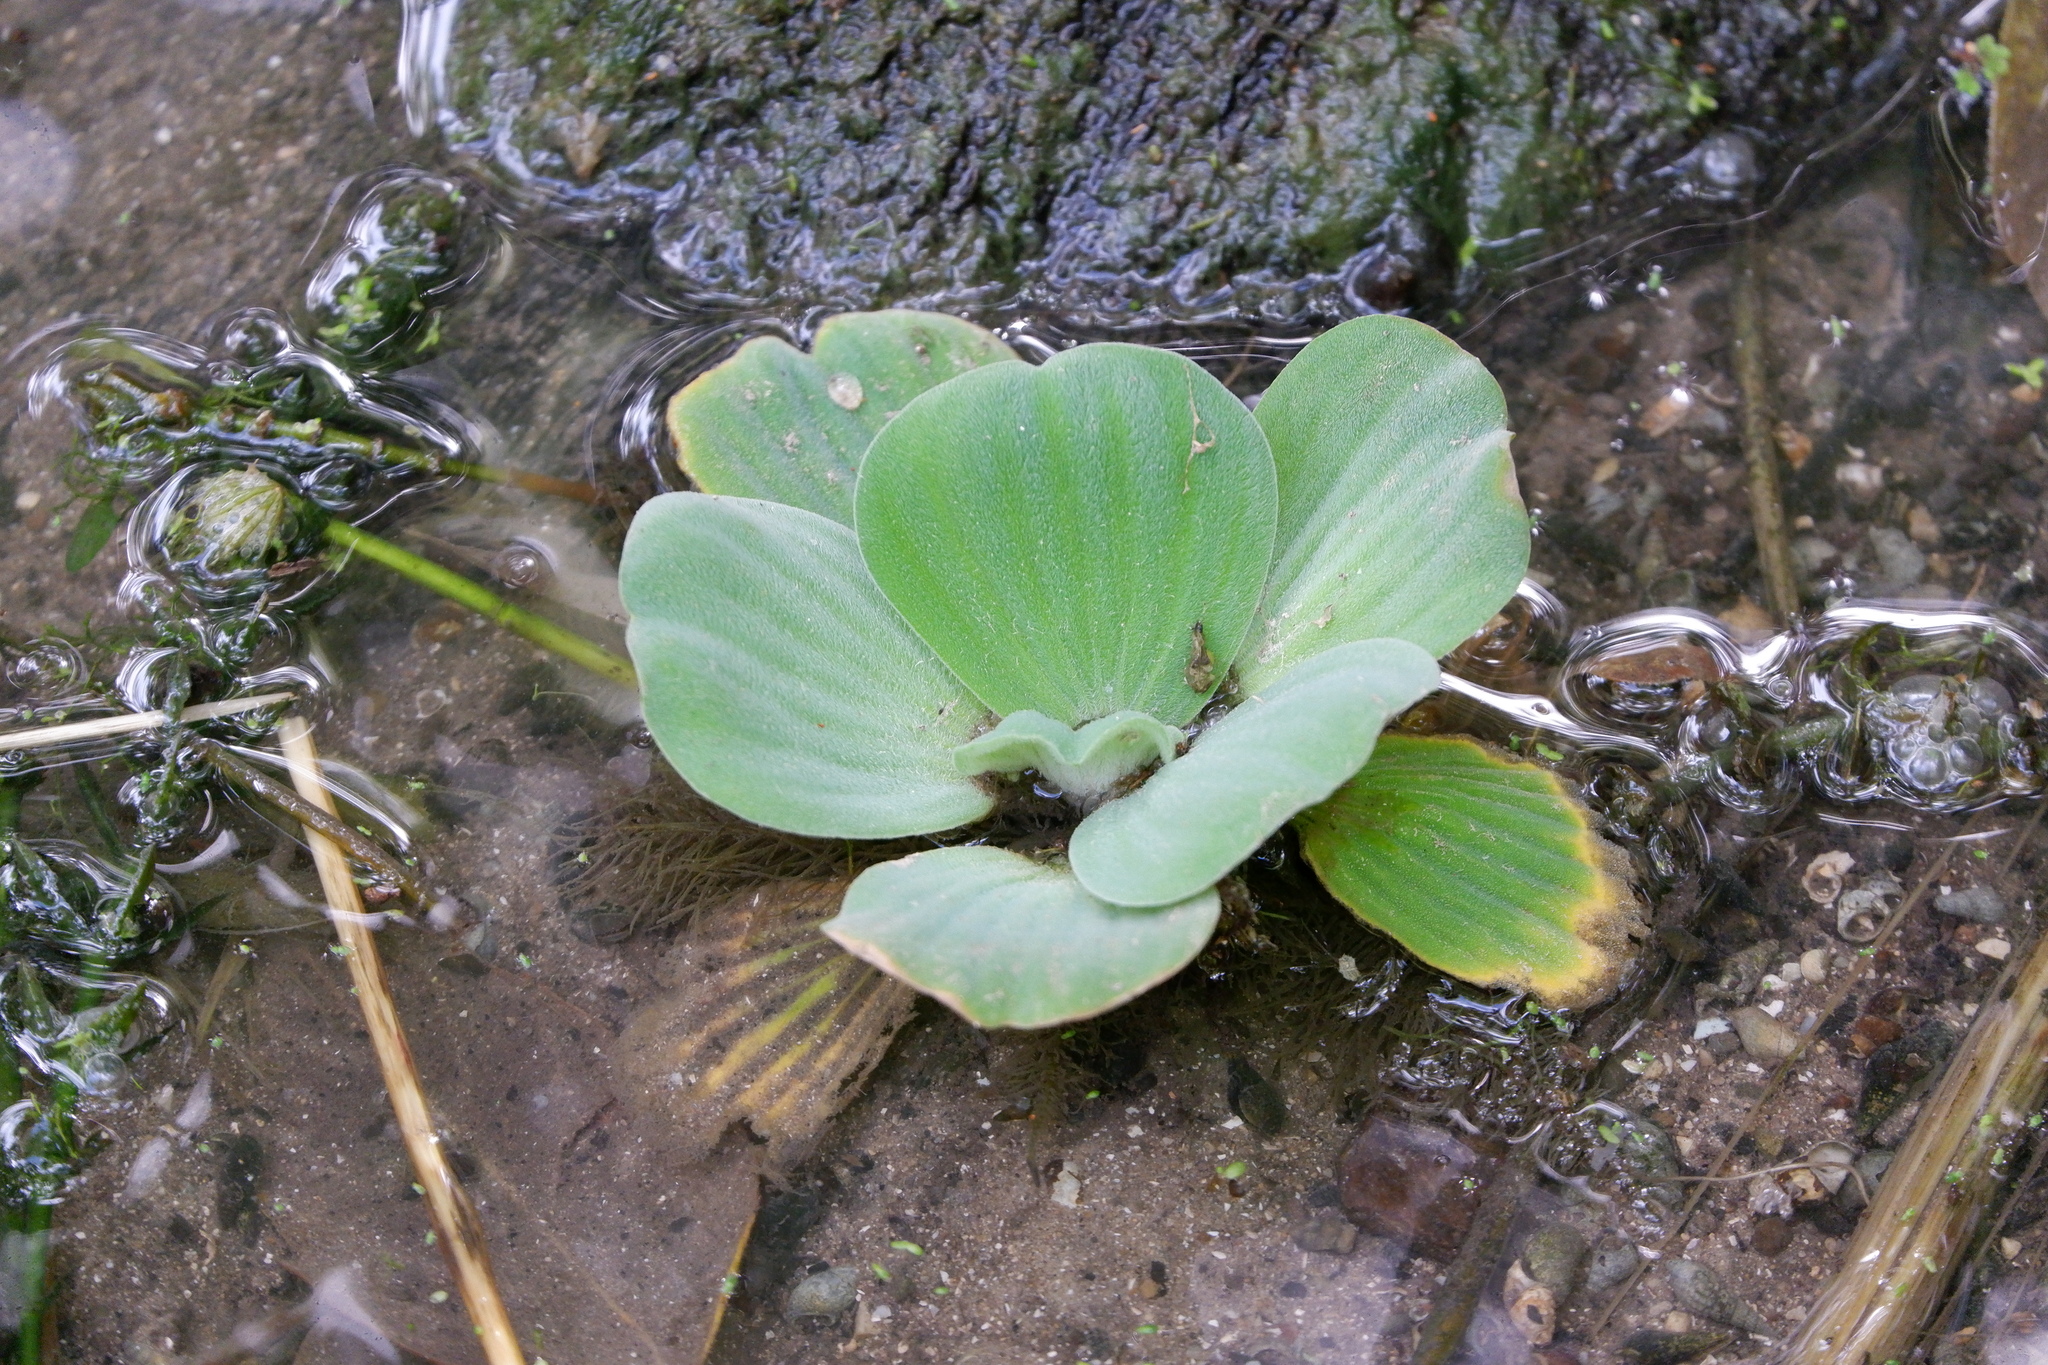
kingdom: Plantae
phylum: Tracheophyta
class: Liliopsida
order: Alismatales
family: Araceae
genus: Pistia
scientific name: Pistia stratiotes
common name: Water lettuce
